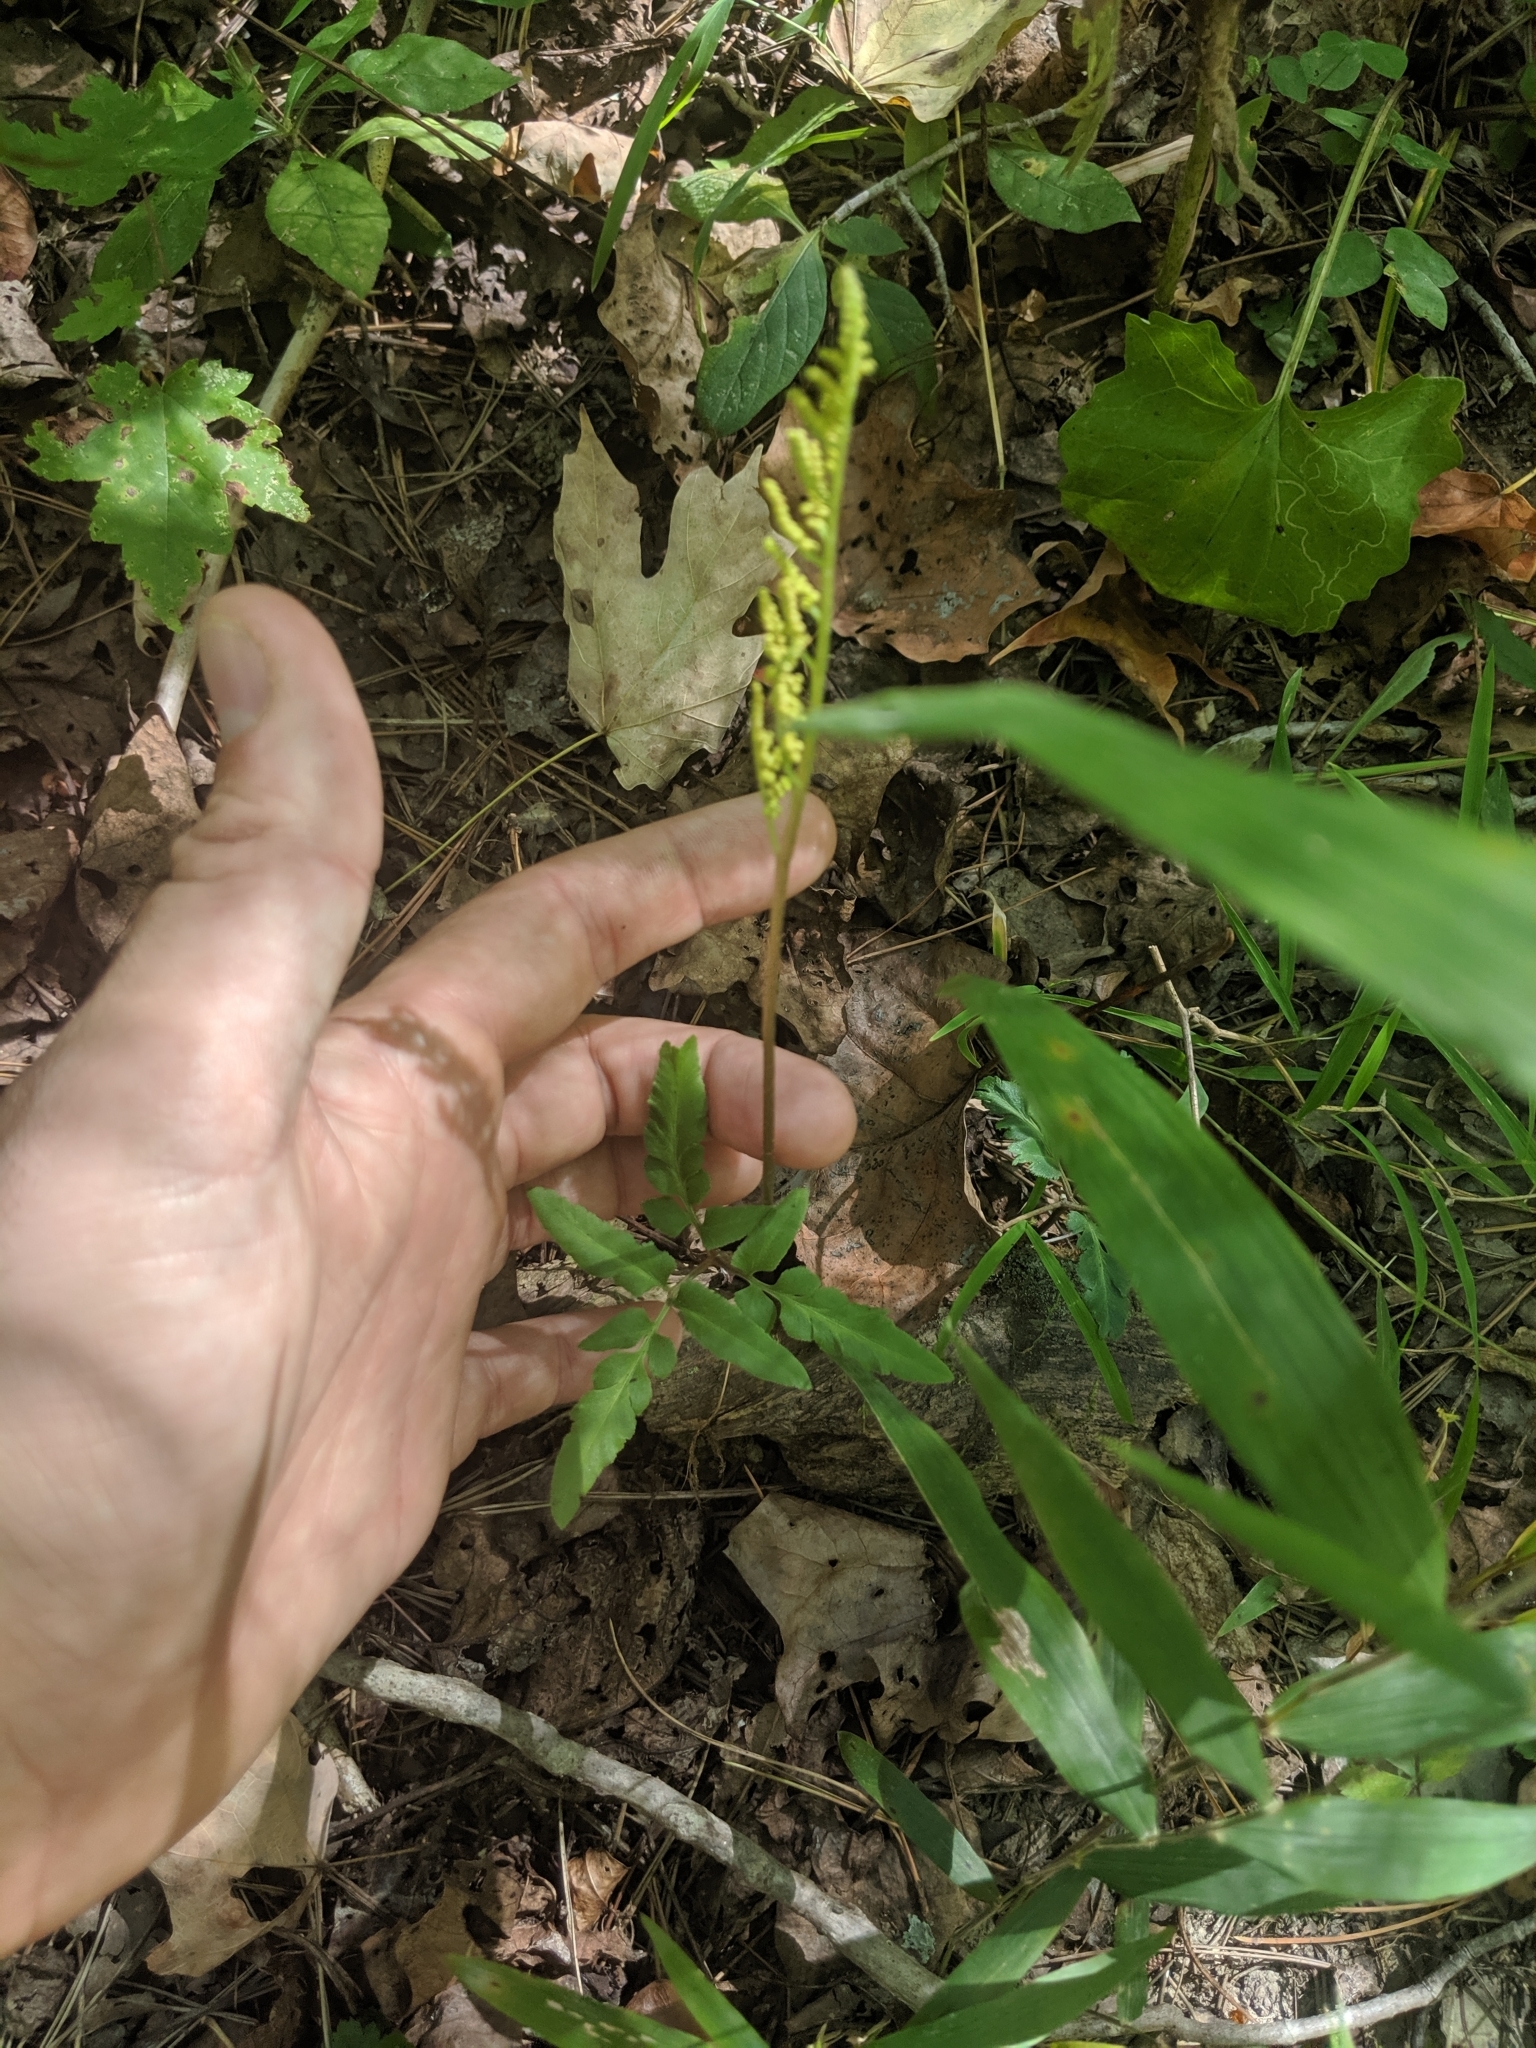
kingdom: Plantae
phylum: Tracheophyta
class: Polypodiopsida
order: Ophioglossales
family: Ophioglossaceae
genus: Sceptridium
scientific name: Sceptridium biternatum
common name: Sparse-lobed grapefern
